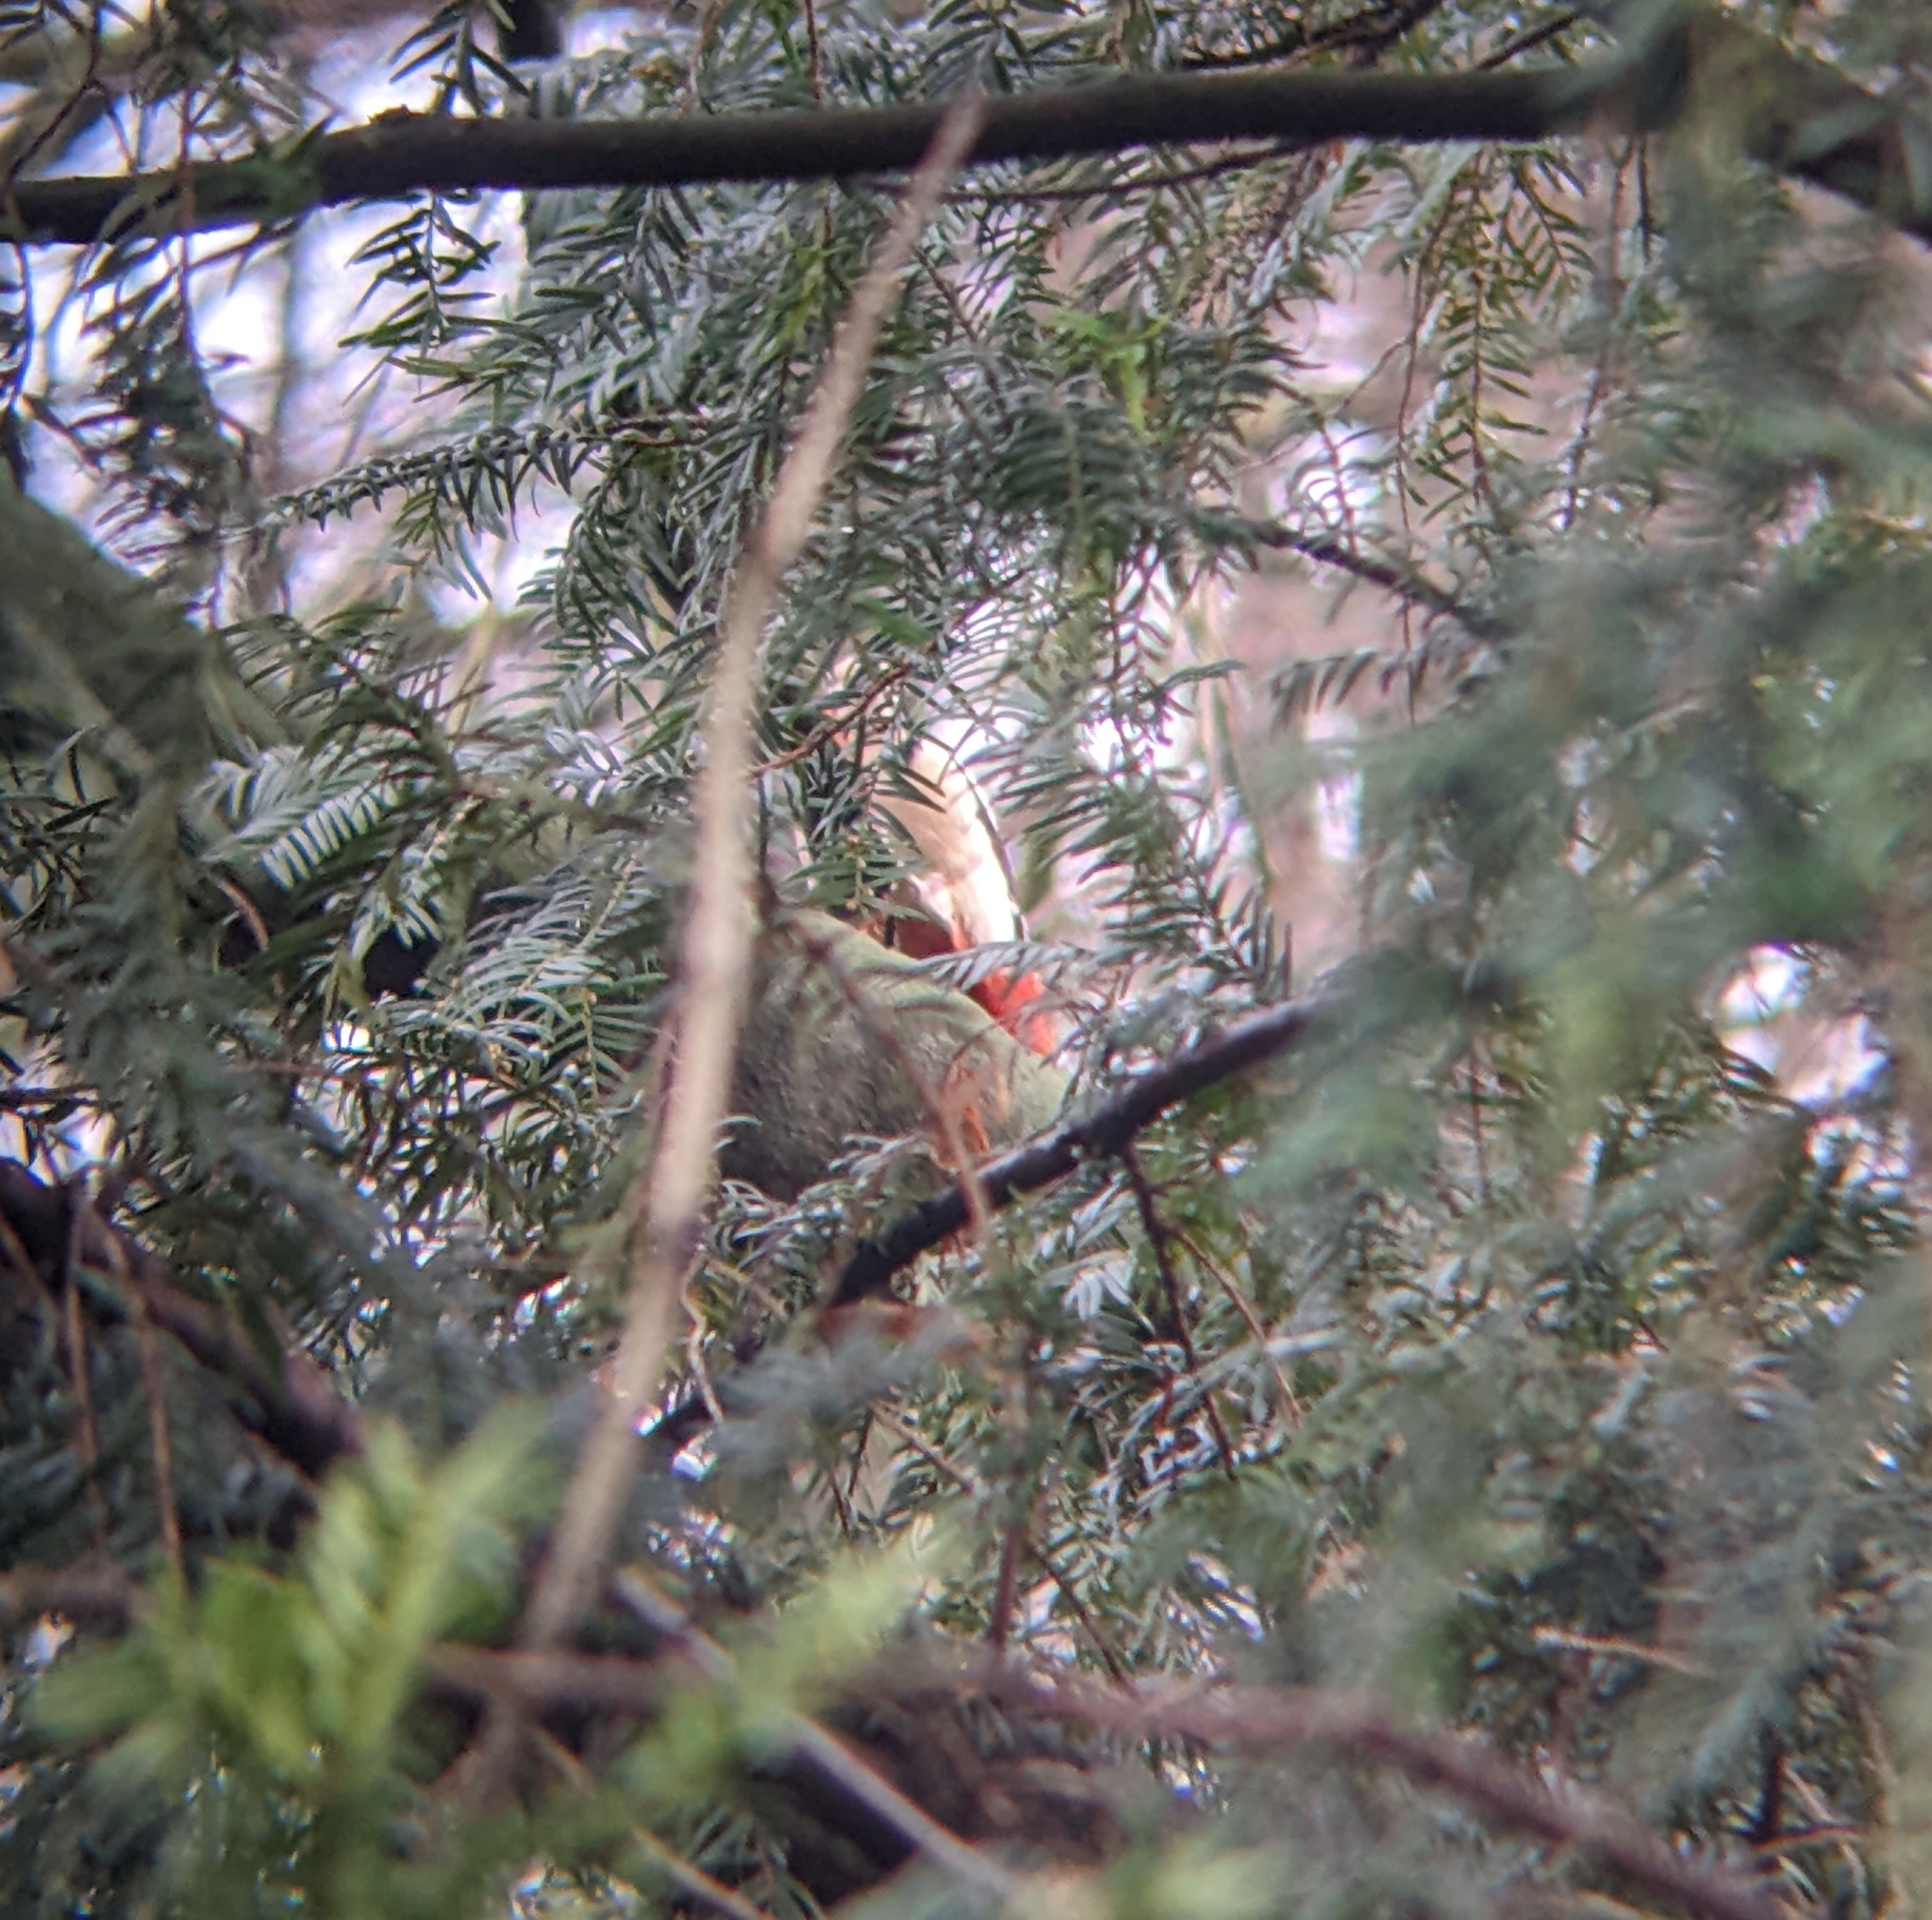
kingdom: Animalia
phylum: Chordata
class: Aves
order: Piciformes
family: Picidae
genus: Dendrocopos
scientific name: Dendrocopos major
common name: Great spotted woodpecker
